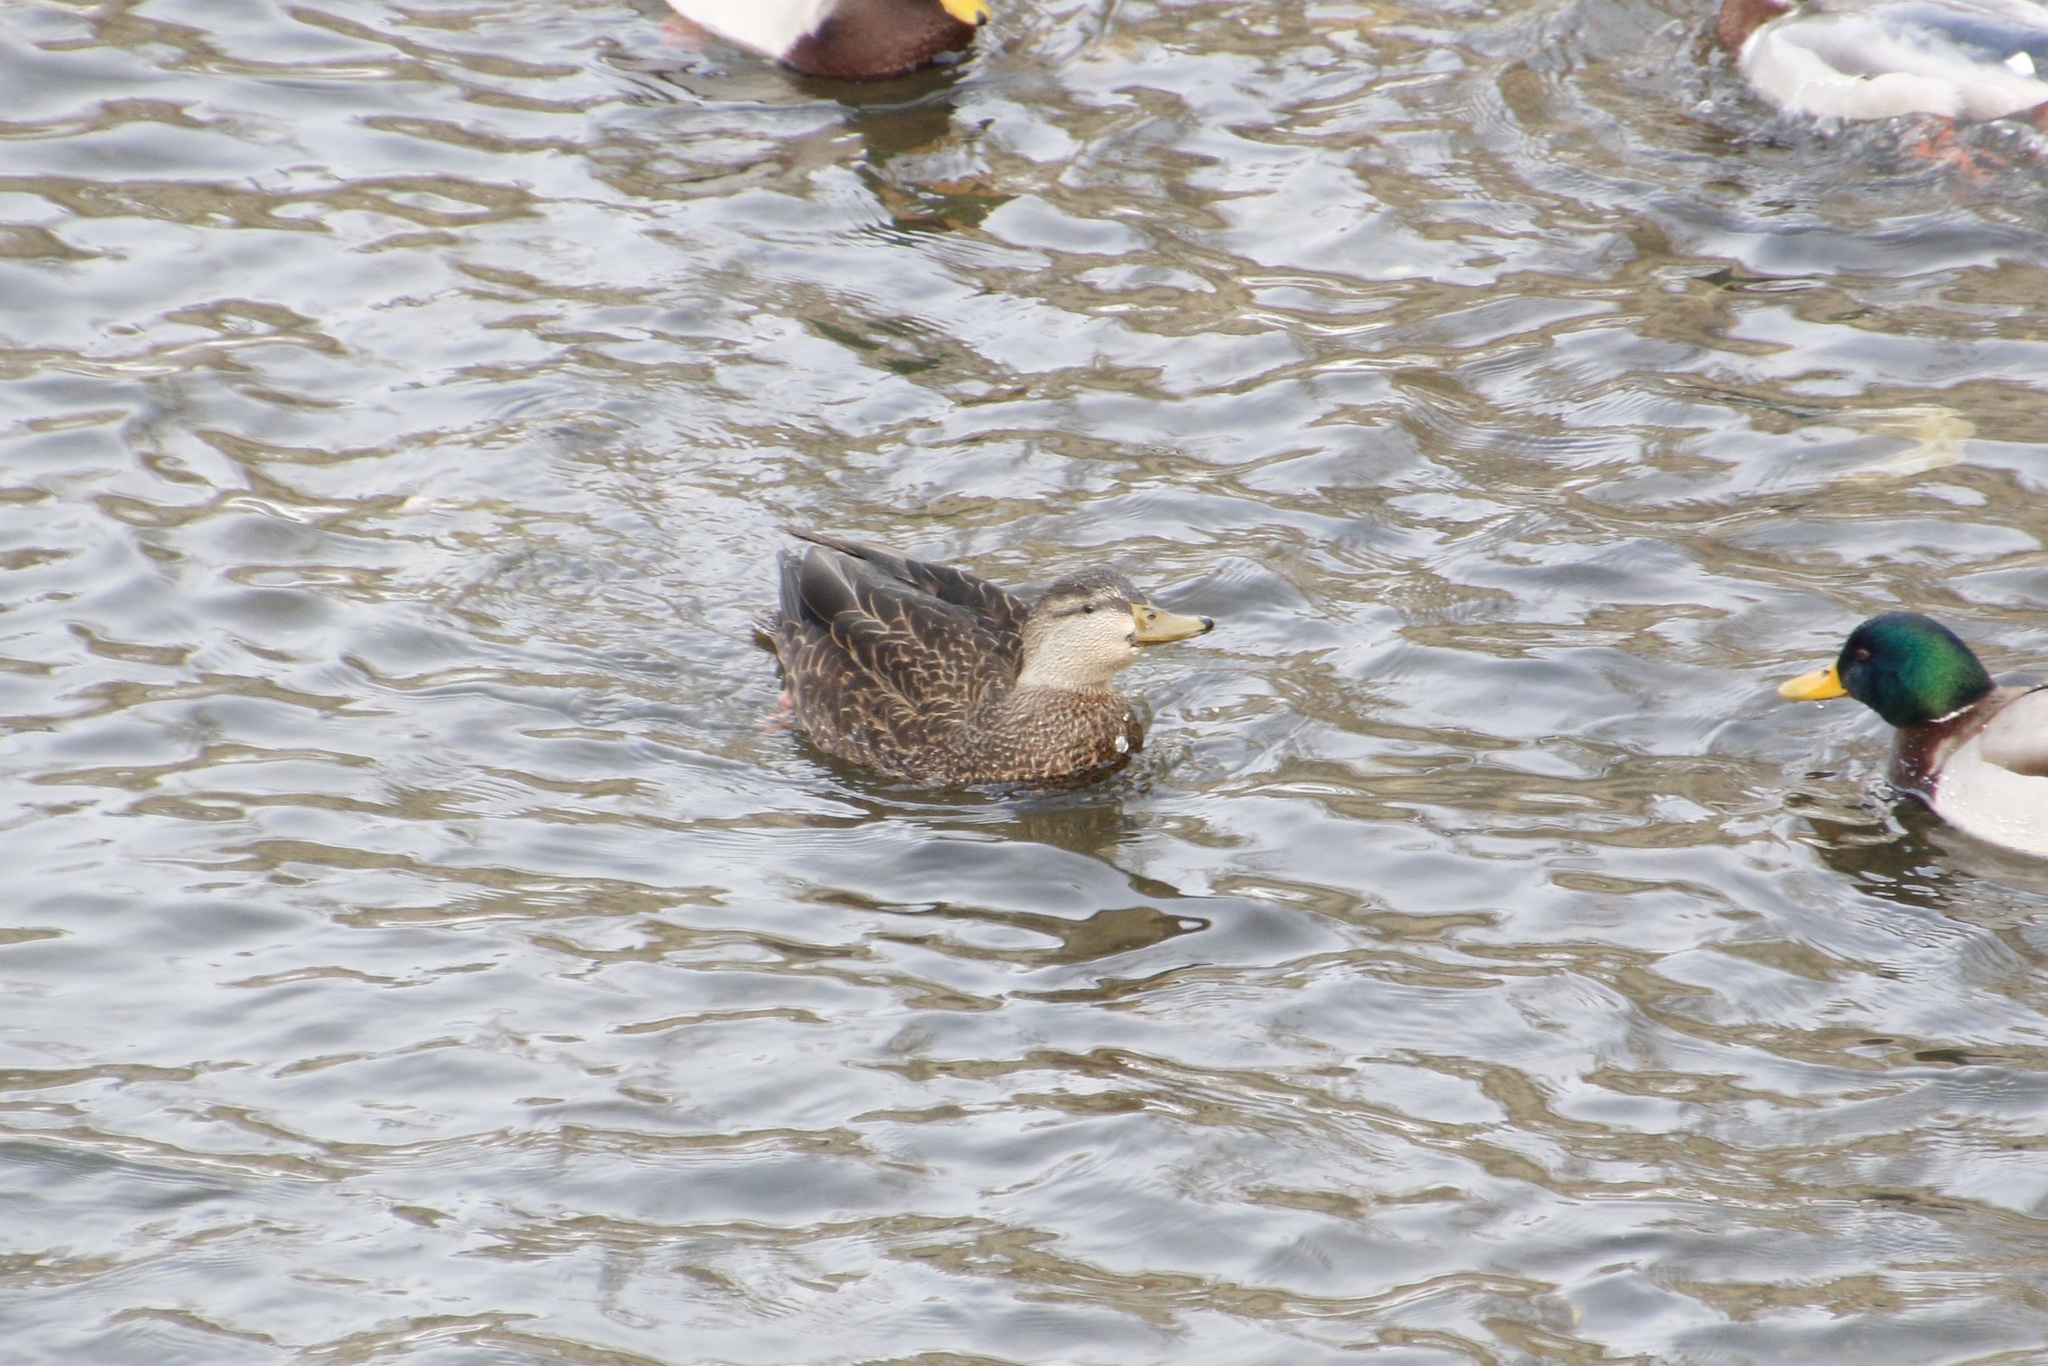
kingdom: Animalia
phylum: Chordata
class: Aves
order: Anseriformes
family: Anatidae
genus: Anas
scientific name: Anas rubripes
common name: American black duck
